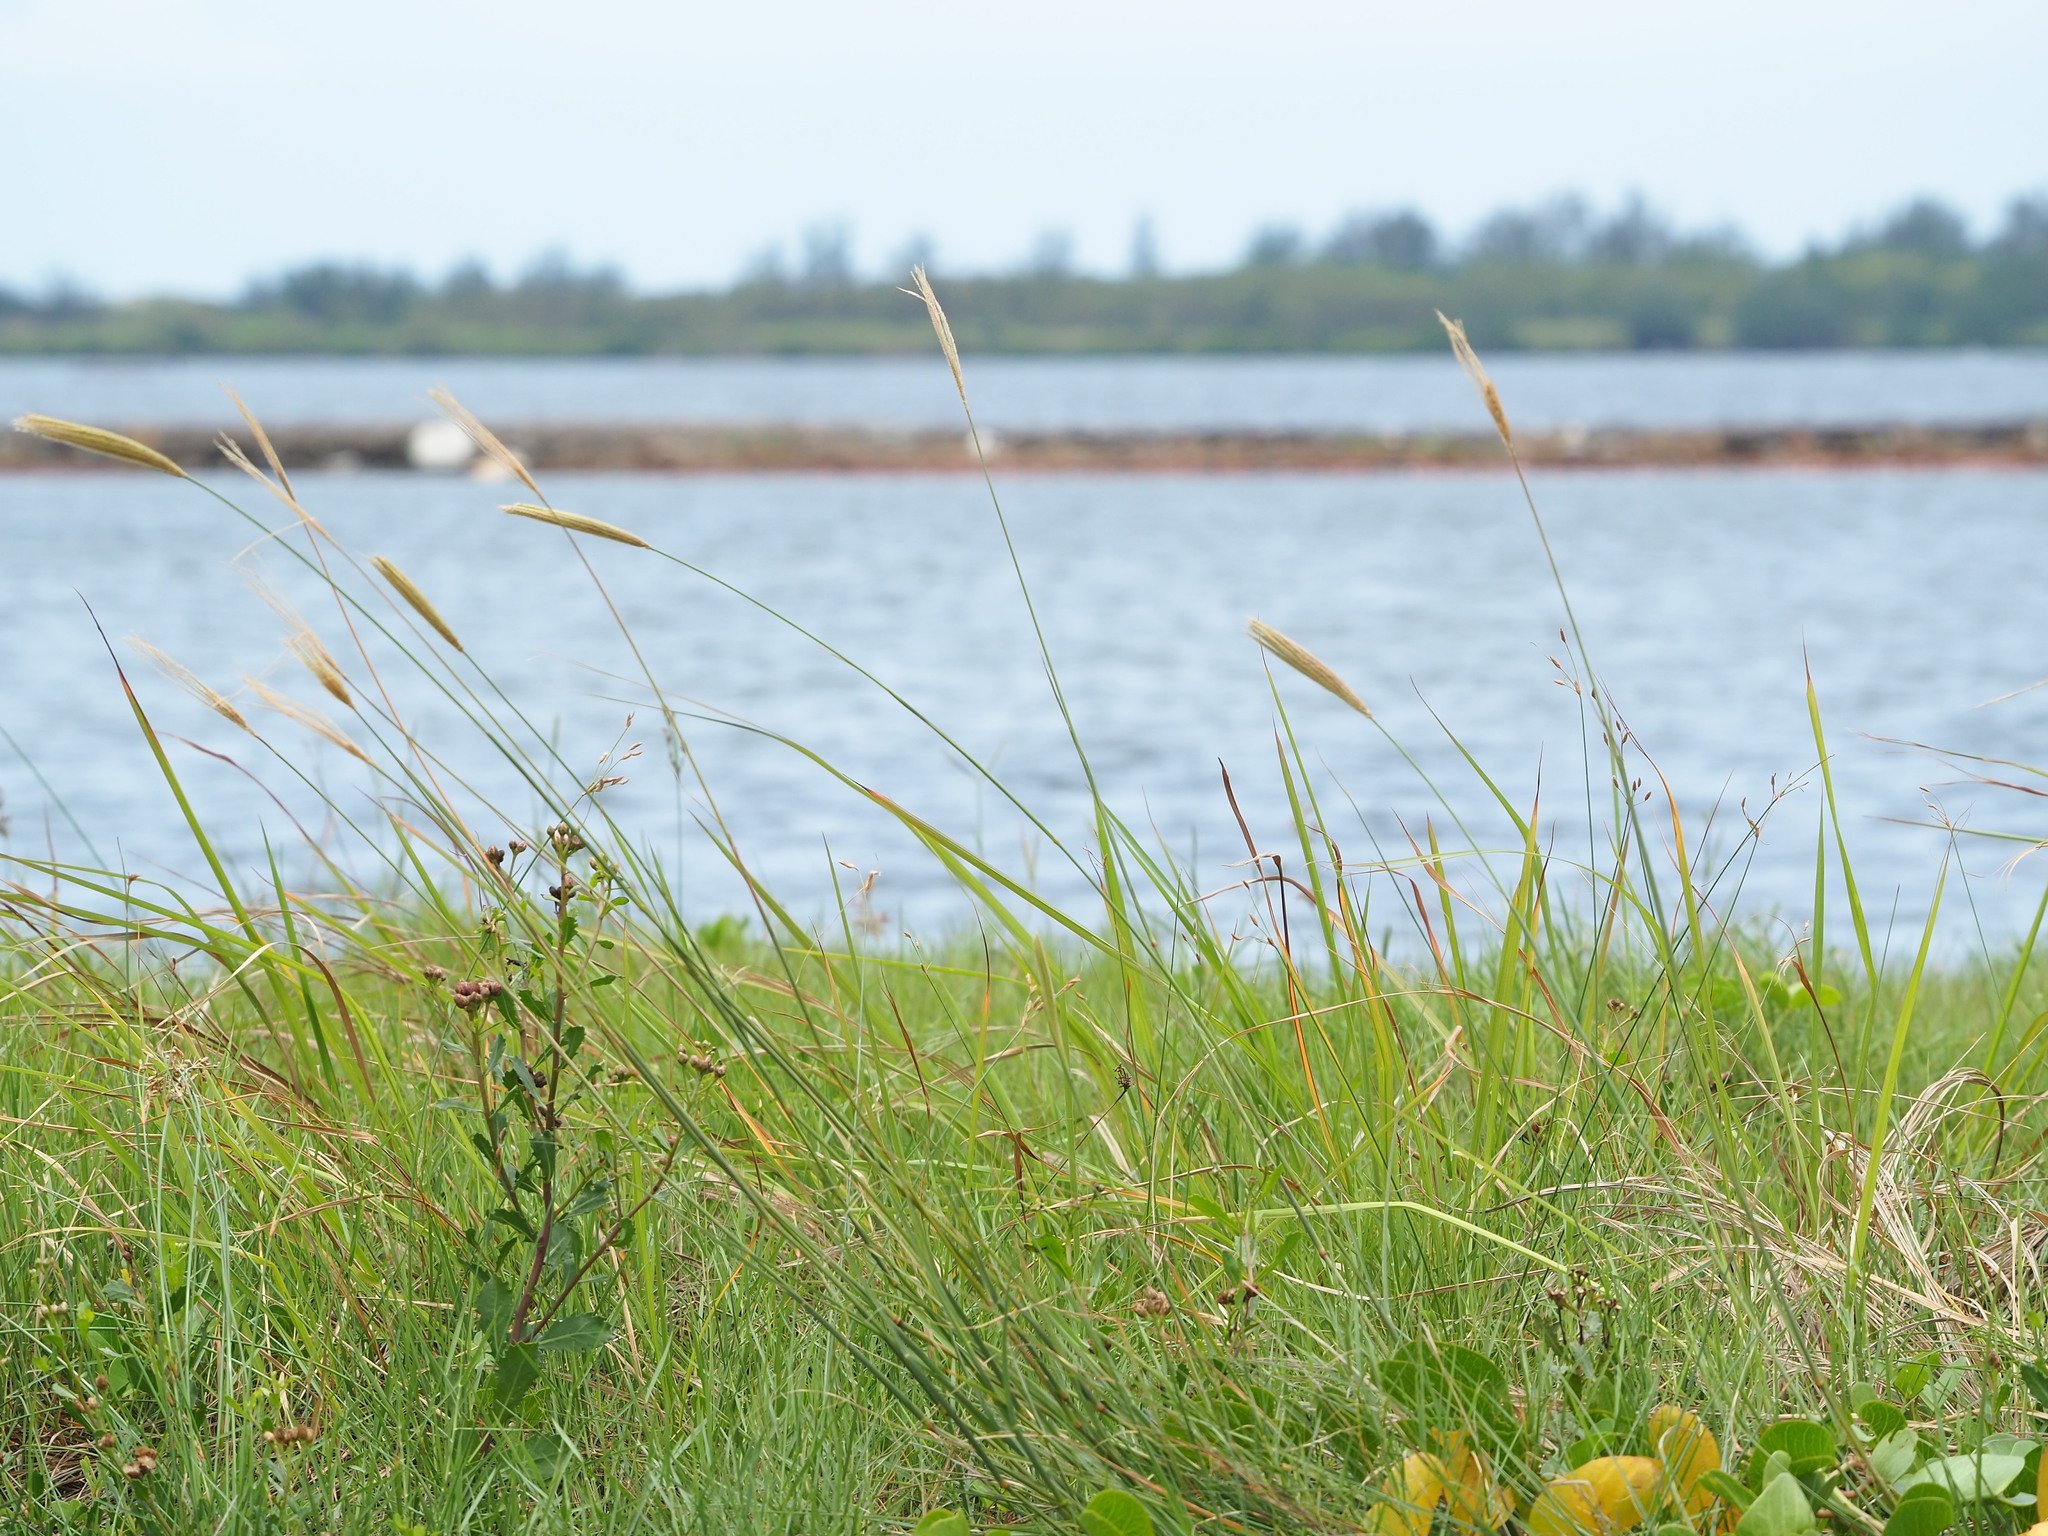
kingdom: Plantae
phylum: Tracheophyta
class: Liliopsida
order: Poales
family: Poaceae
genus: Chloris
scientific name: Chloris formosana
